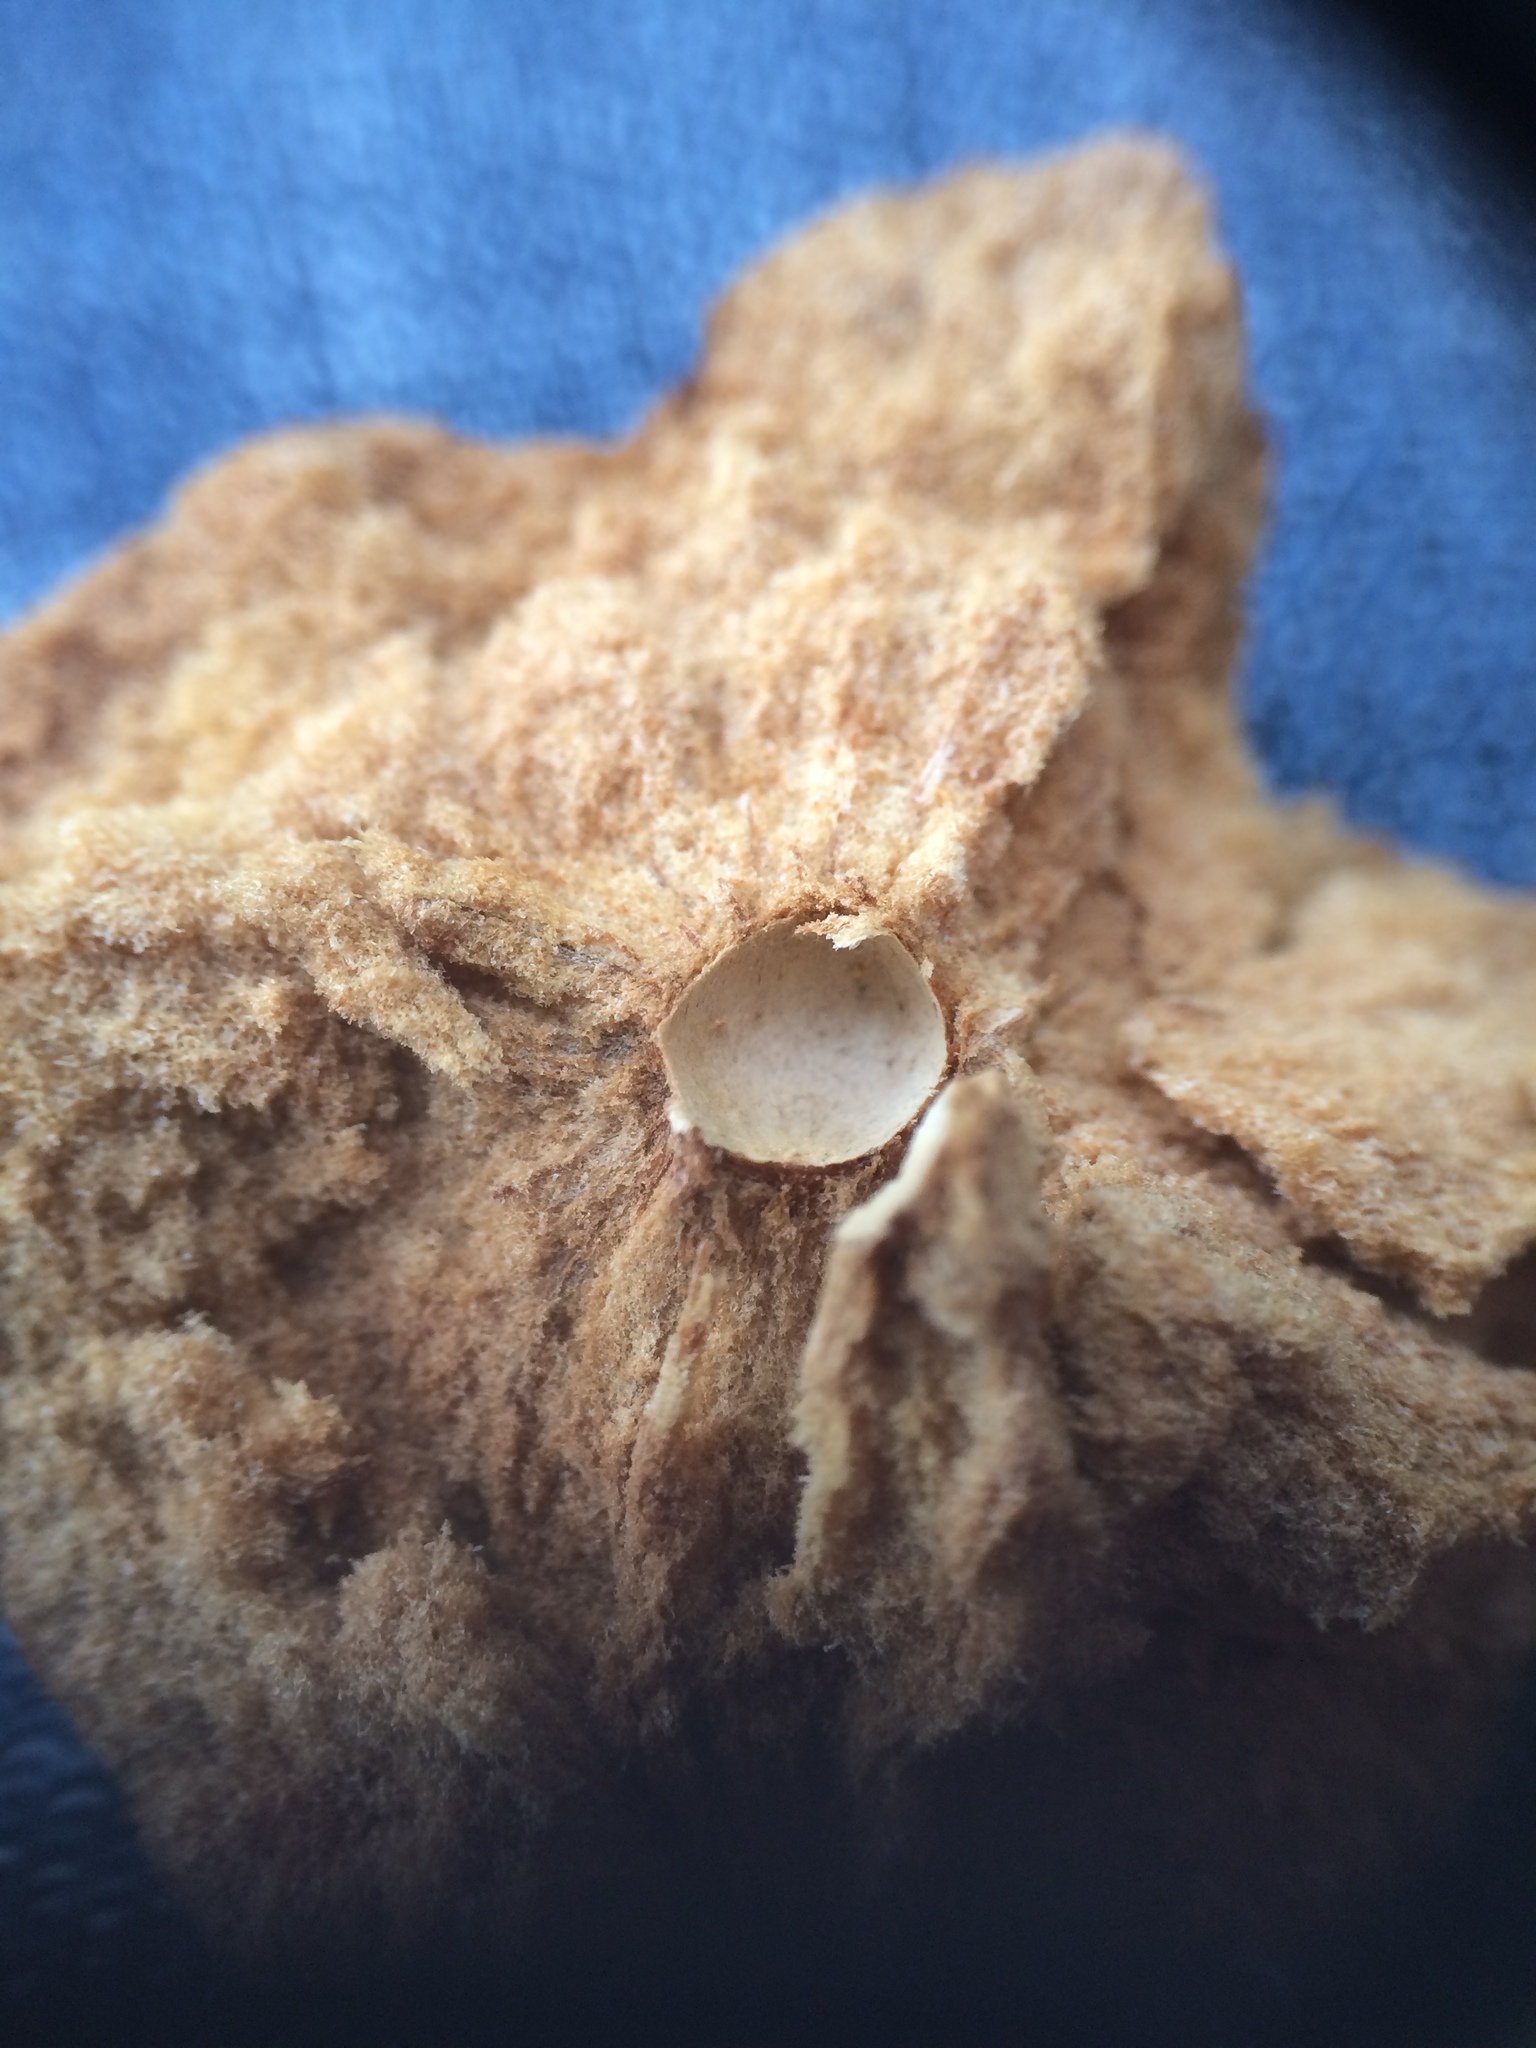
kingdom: Animalia
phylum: Arthropoda
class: Insecta
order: Hymenoptera
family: Cynipidae
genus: Andricus
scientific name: Andricus quercustozae
